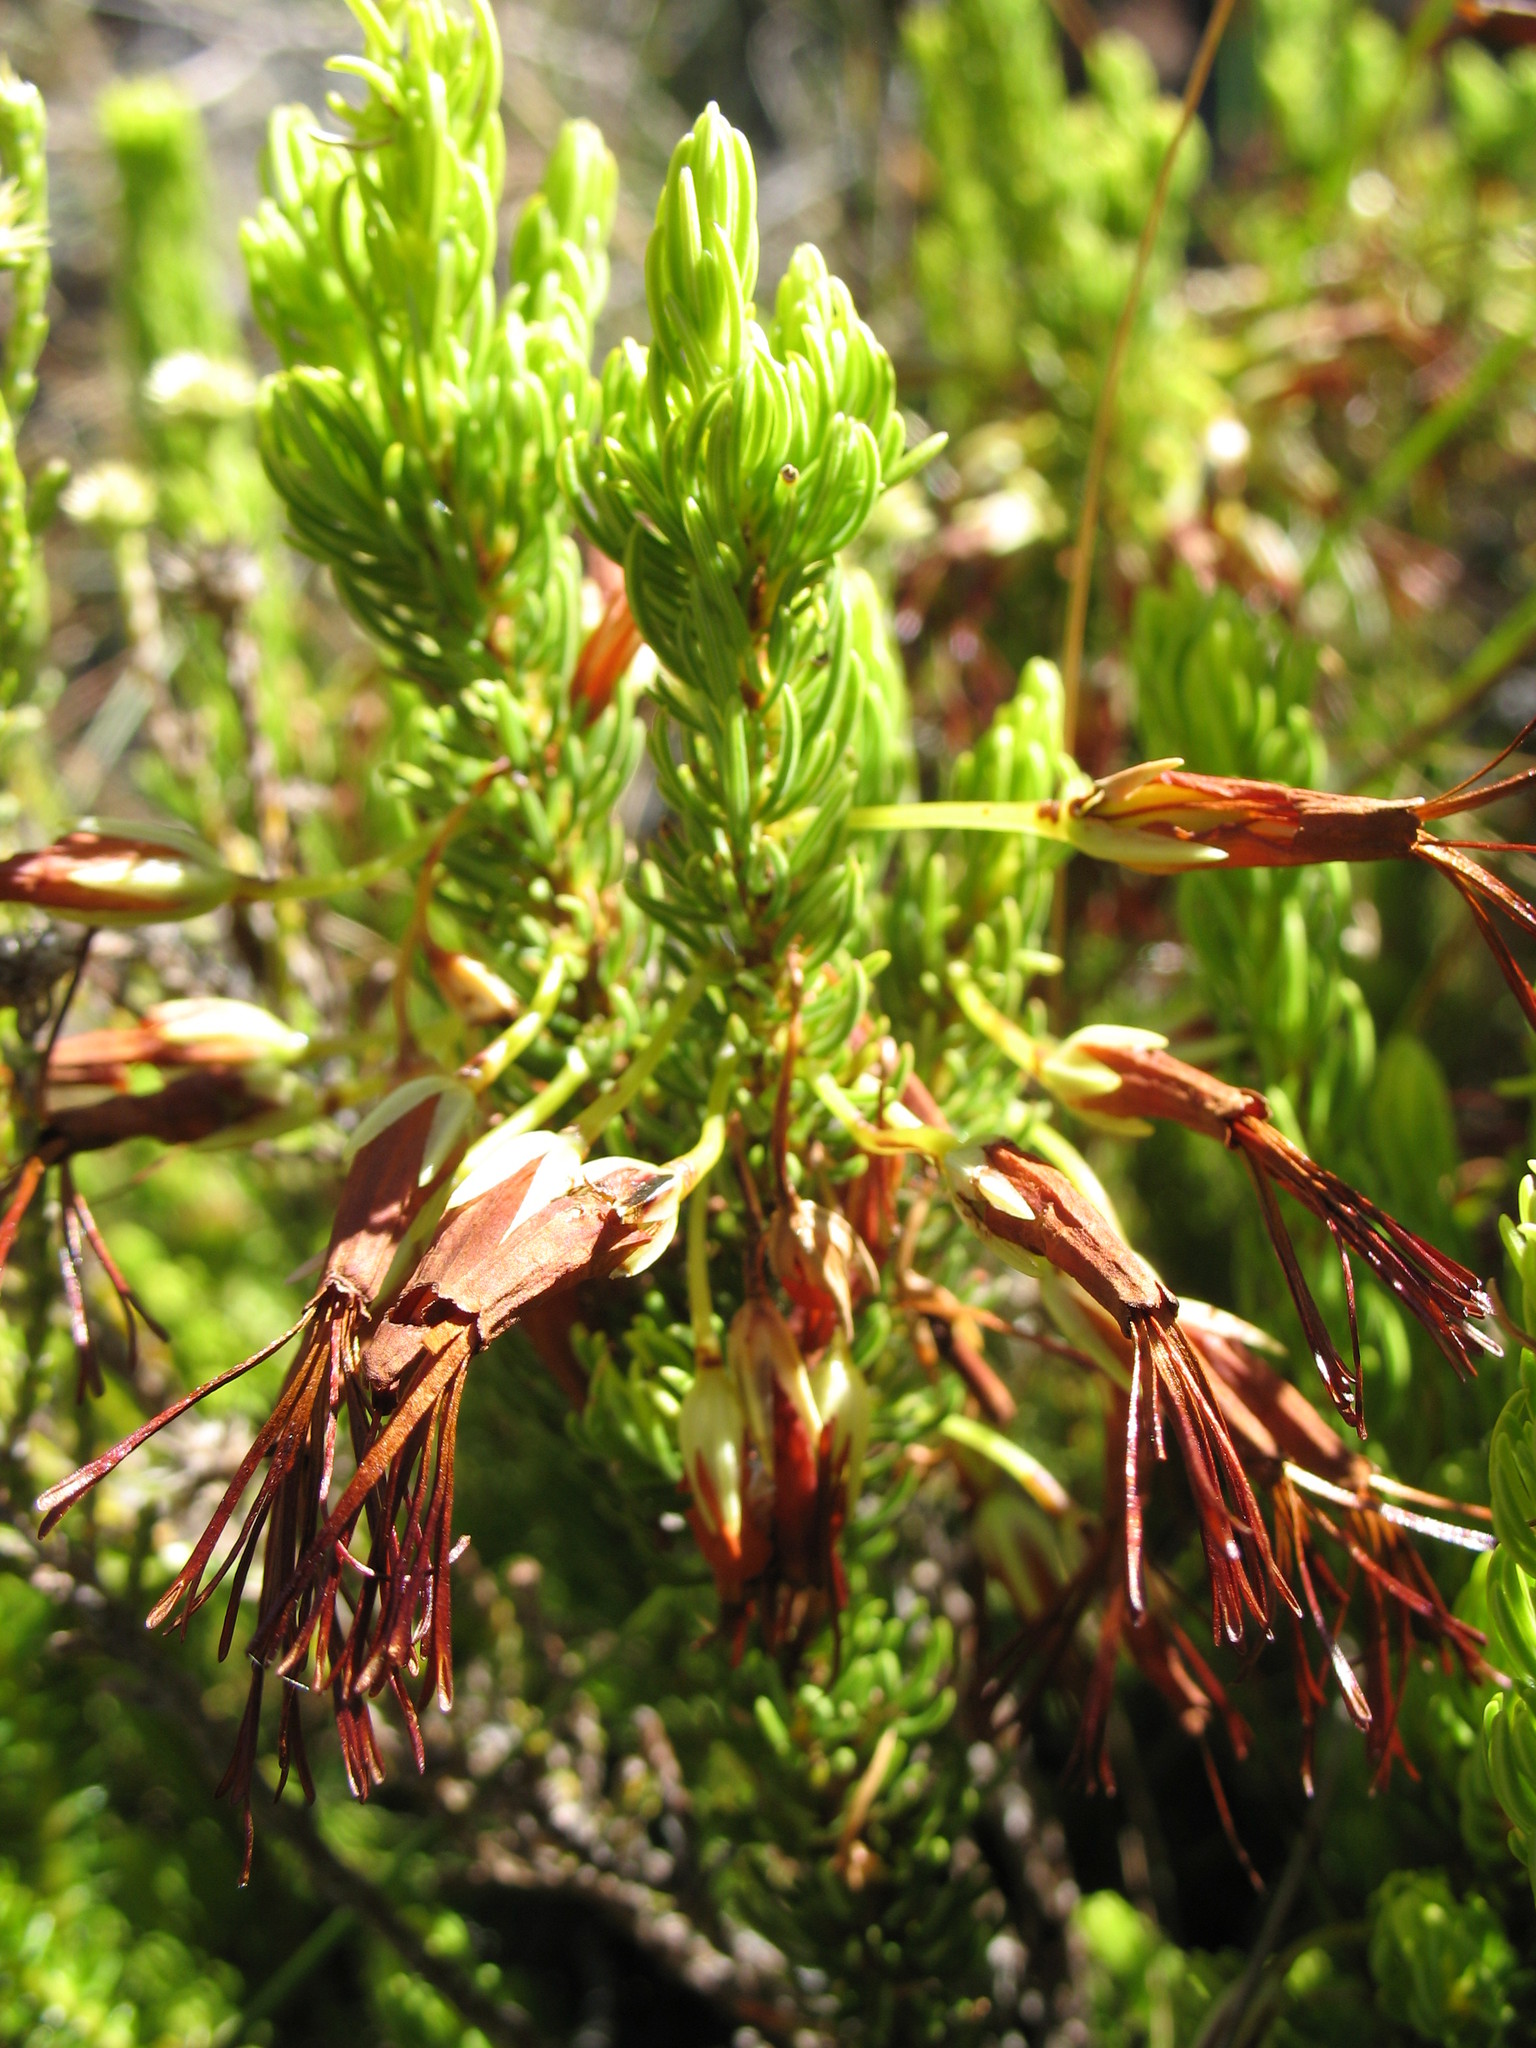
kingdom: Plantae
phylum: Tracheophyta
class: Magnoliopsida
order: Ericales
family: Ericaceae
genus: Erica
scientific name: Erica plukenetii
